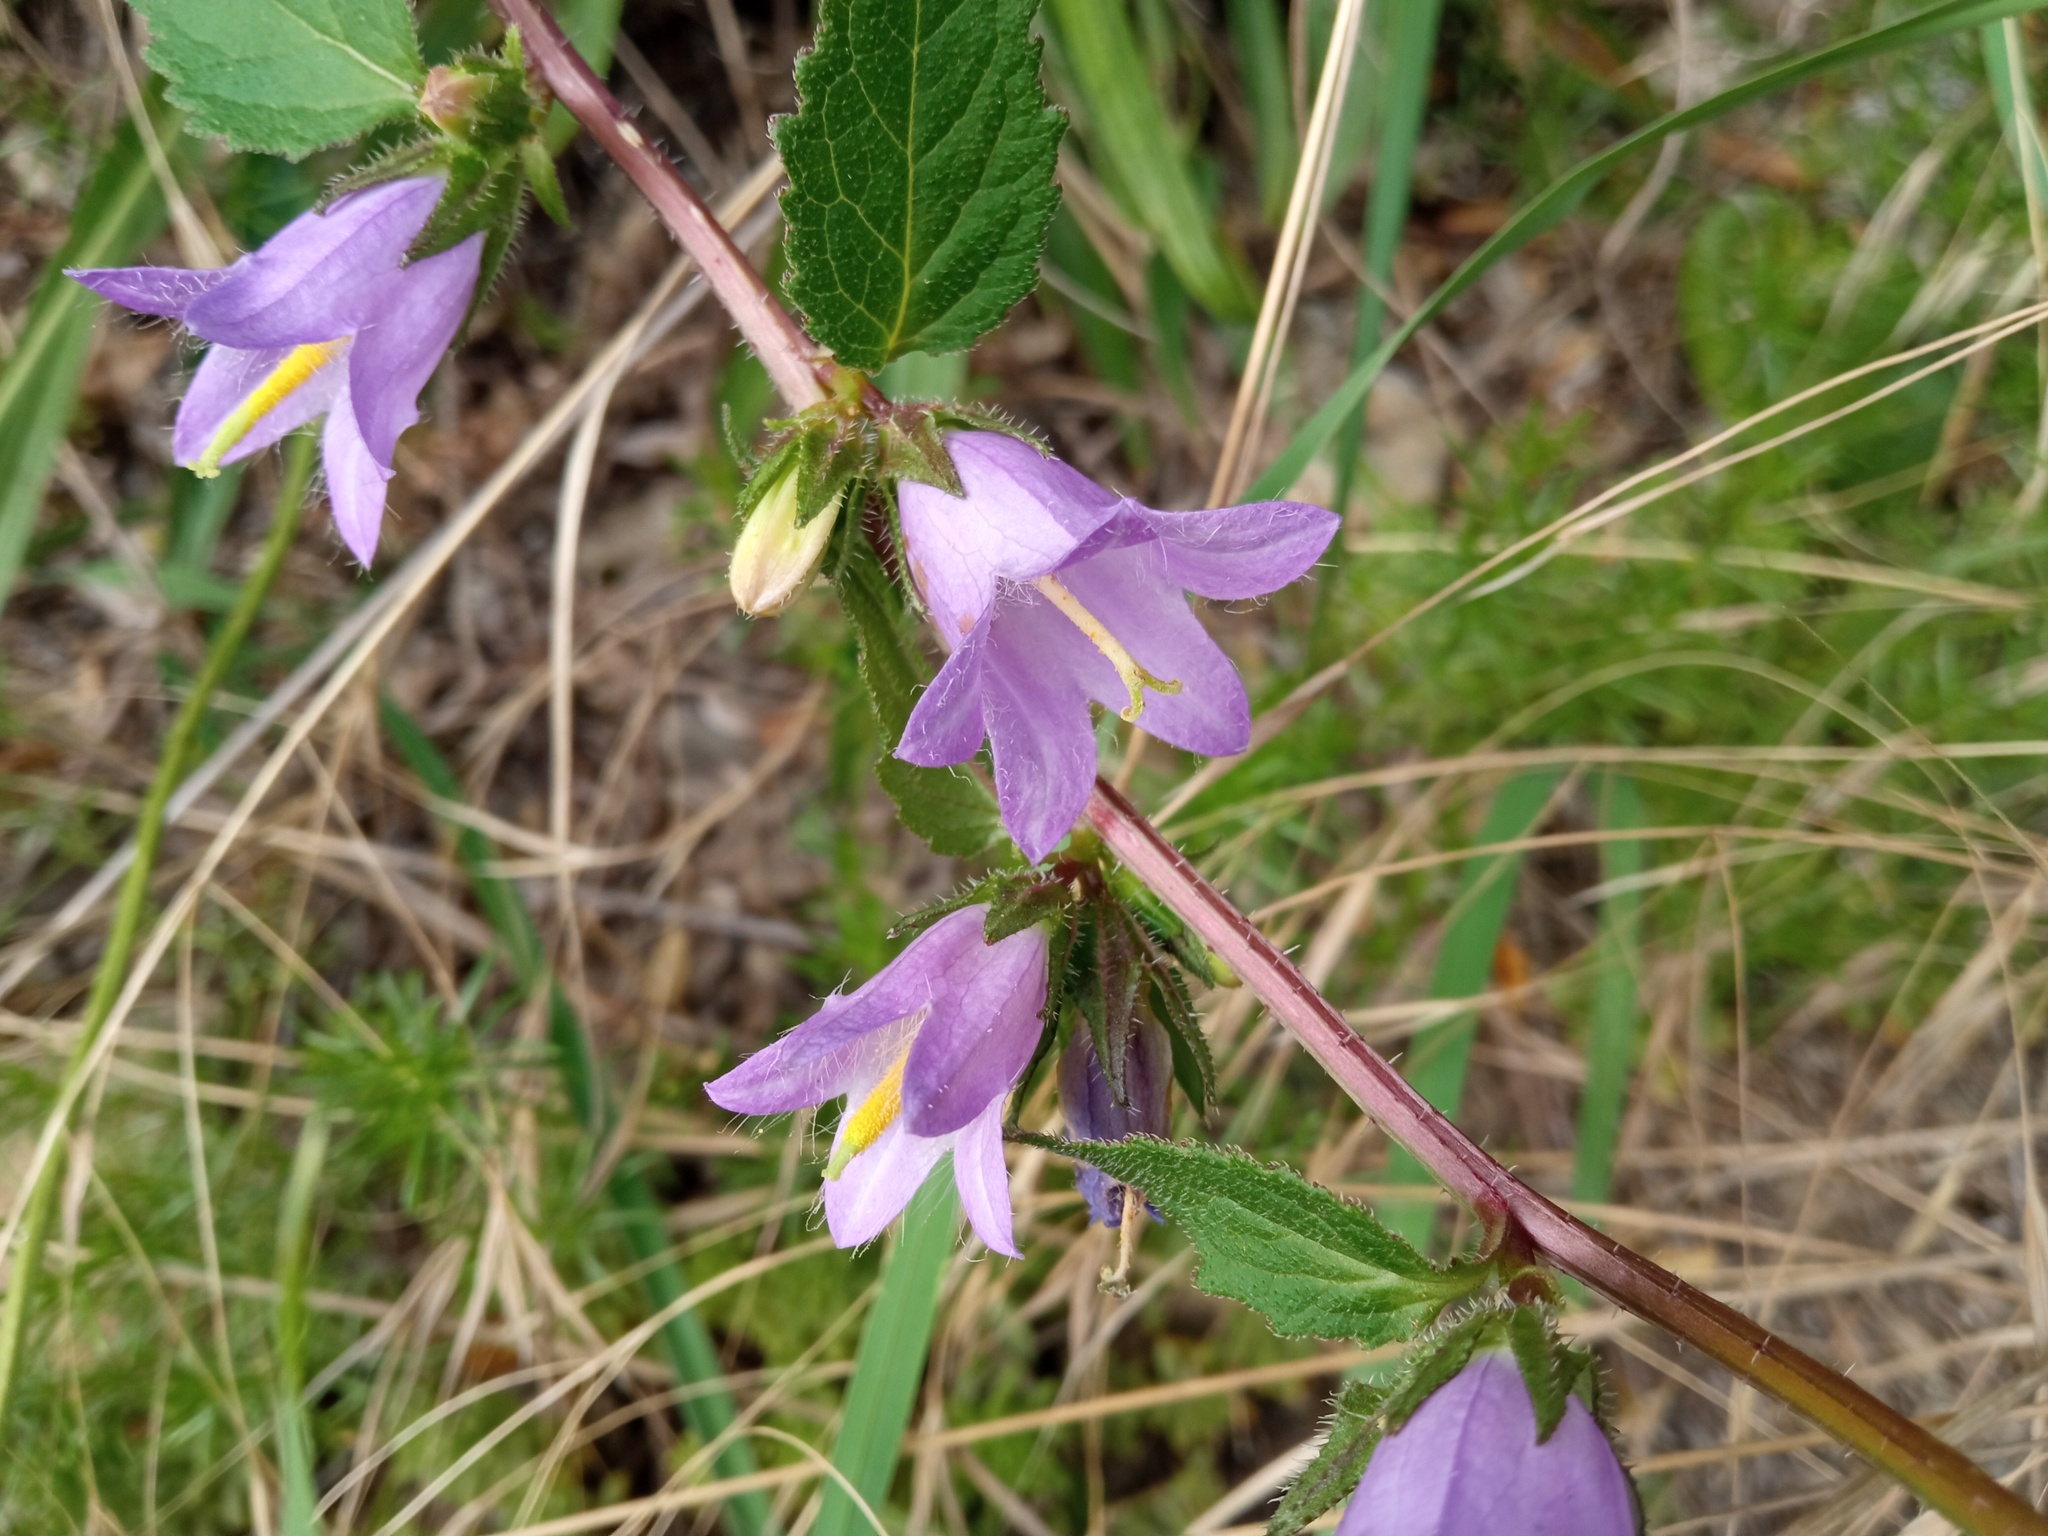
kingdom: Plantae
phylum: Tracheophyta
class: Magnoliopsida
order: Asterales
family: Campanulaceae
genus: Campanula
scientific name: Campanula trachelium
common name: Nettle-leaved bellflower
